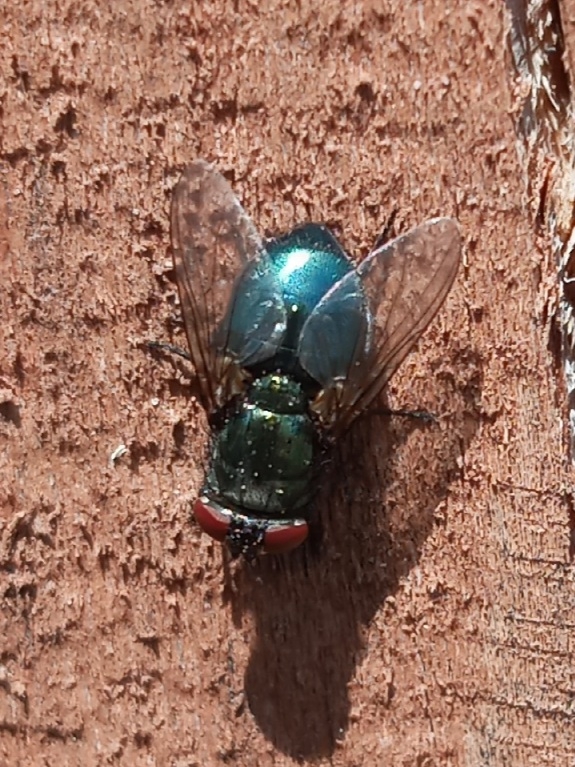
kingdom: Animalia
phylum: Arthropoda
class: Insecta
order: Diptera
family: Calliphoridae
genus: Phormia
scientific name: Phormia regina
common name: Black blow fly
